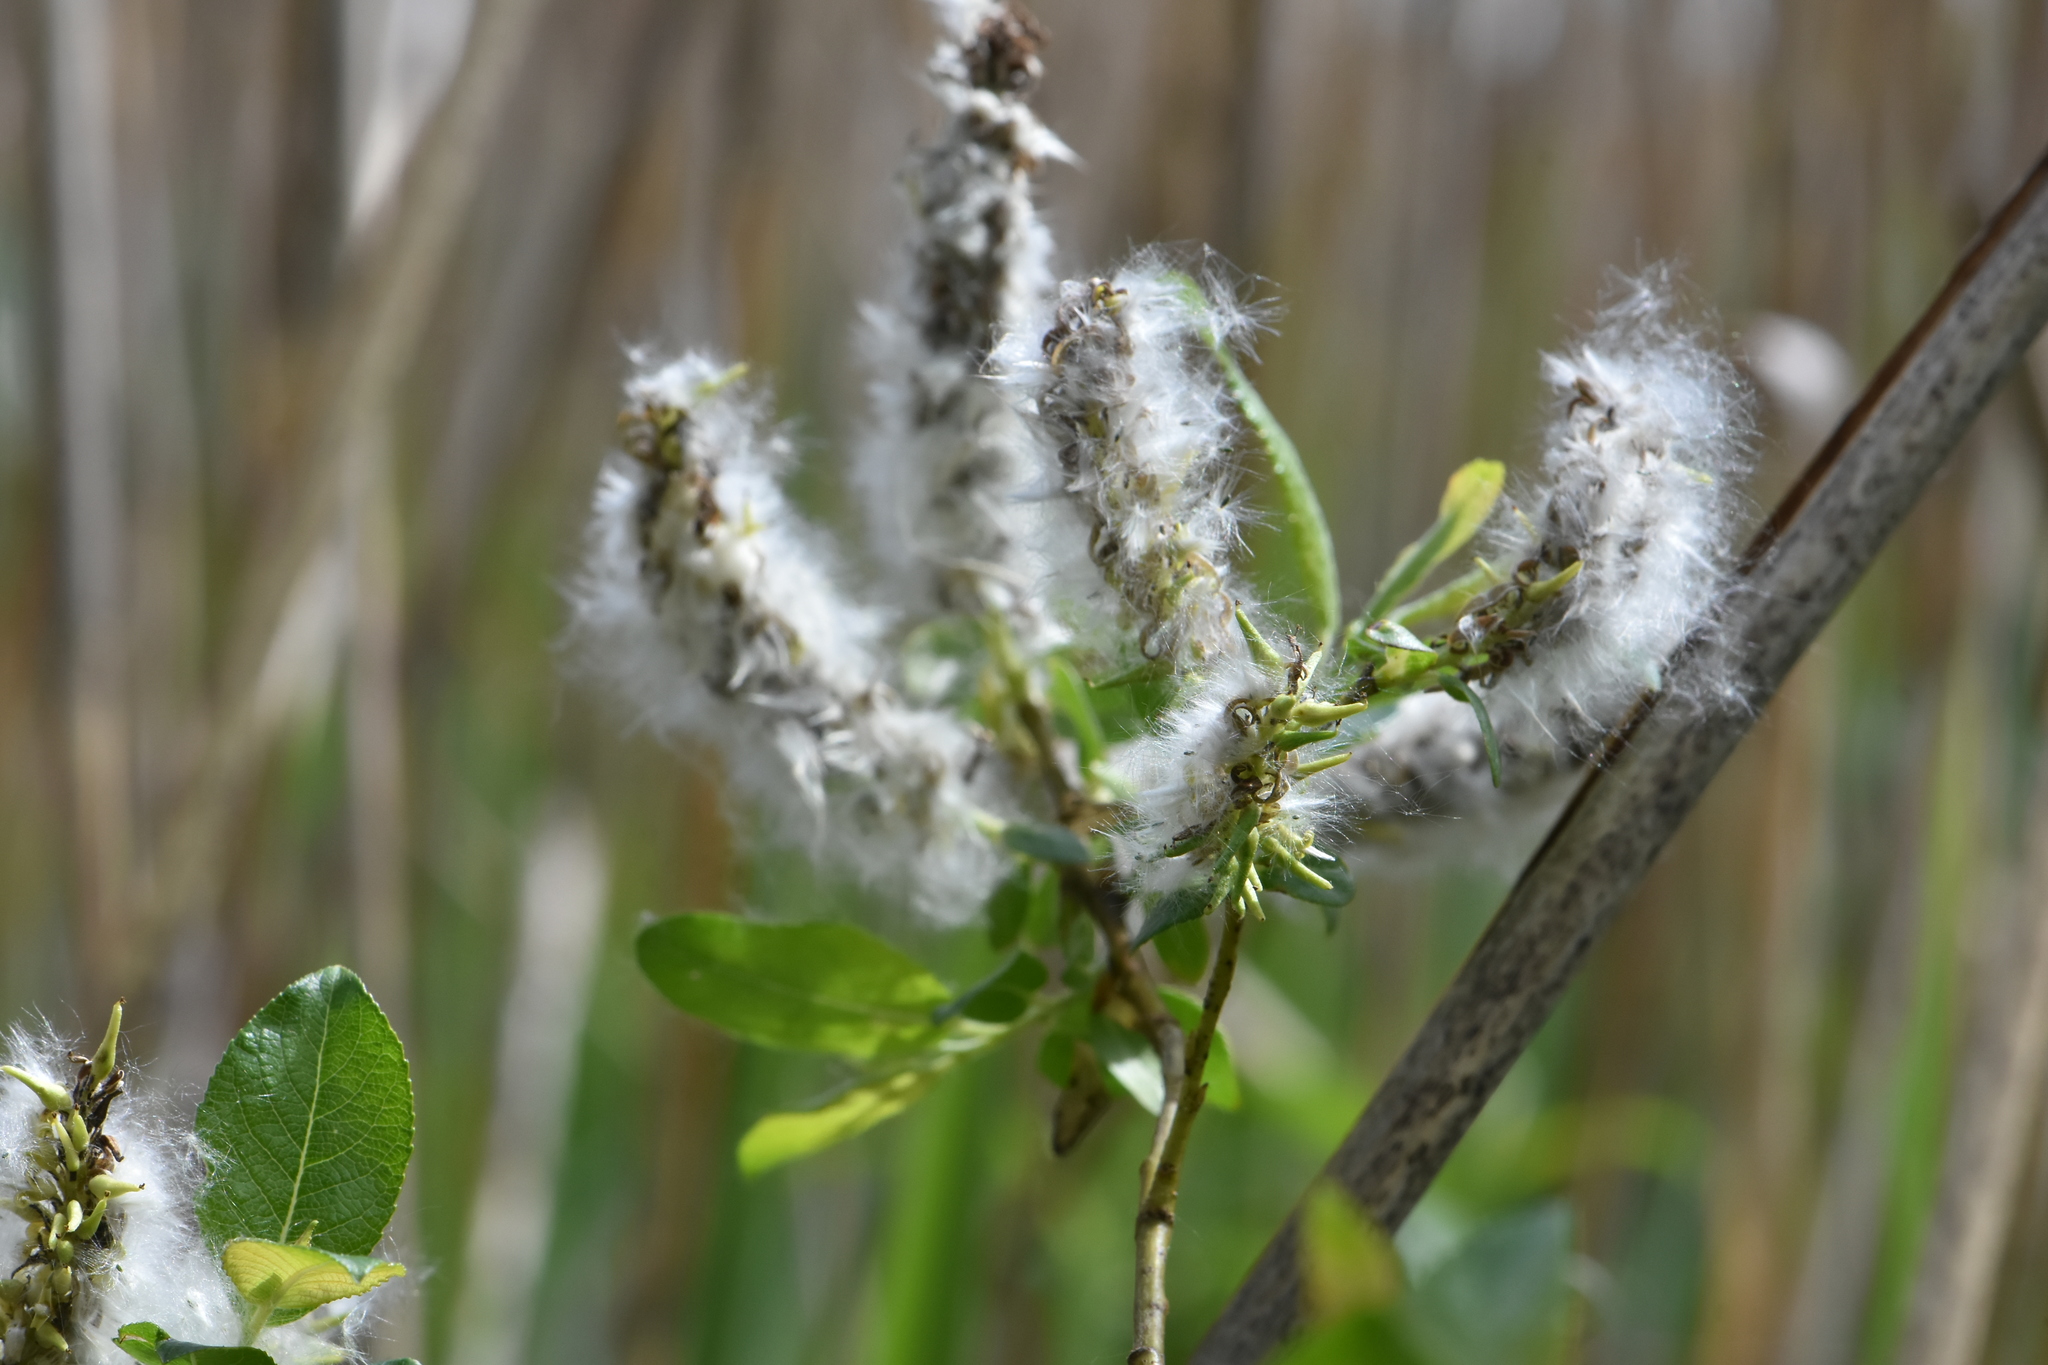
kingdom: Plantae
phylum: Tracheophyta
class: Magnoliopsida
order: Malpighiales
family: Salicaceae
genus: Salix
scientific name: Salix myrsinifolia
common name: Dark-leaved willow
